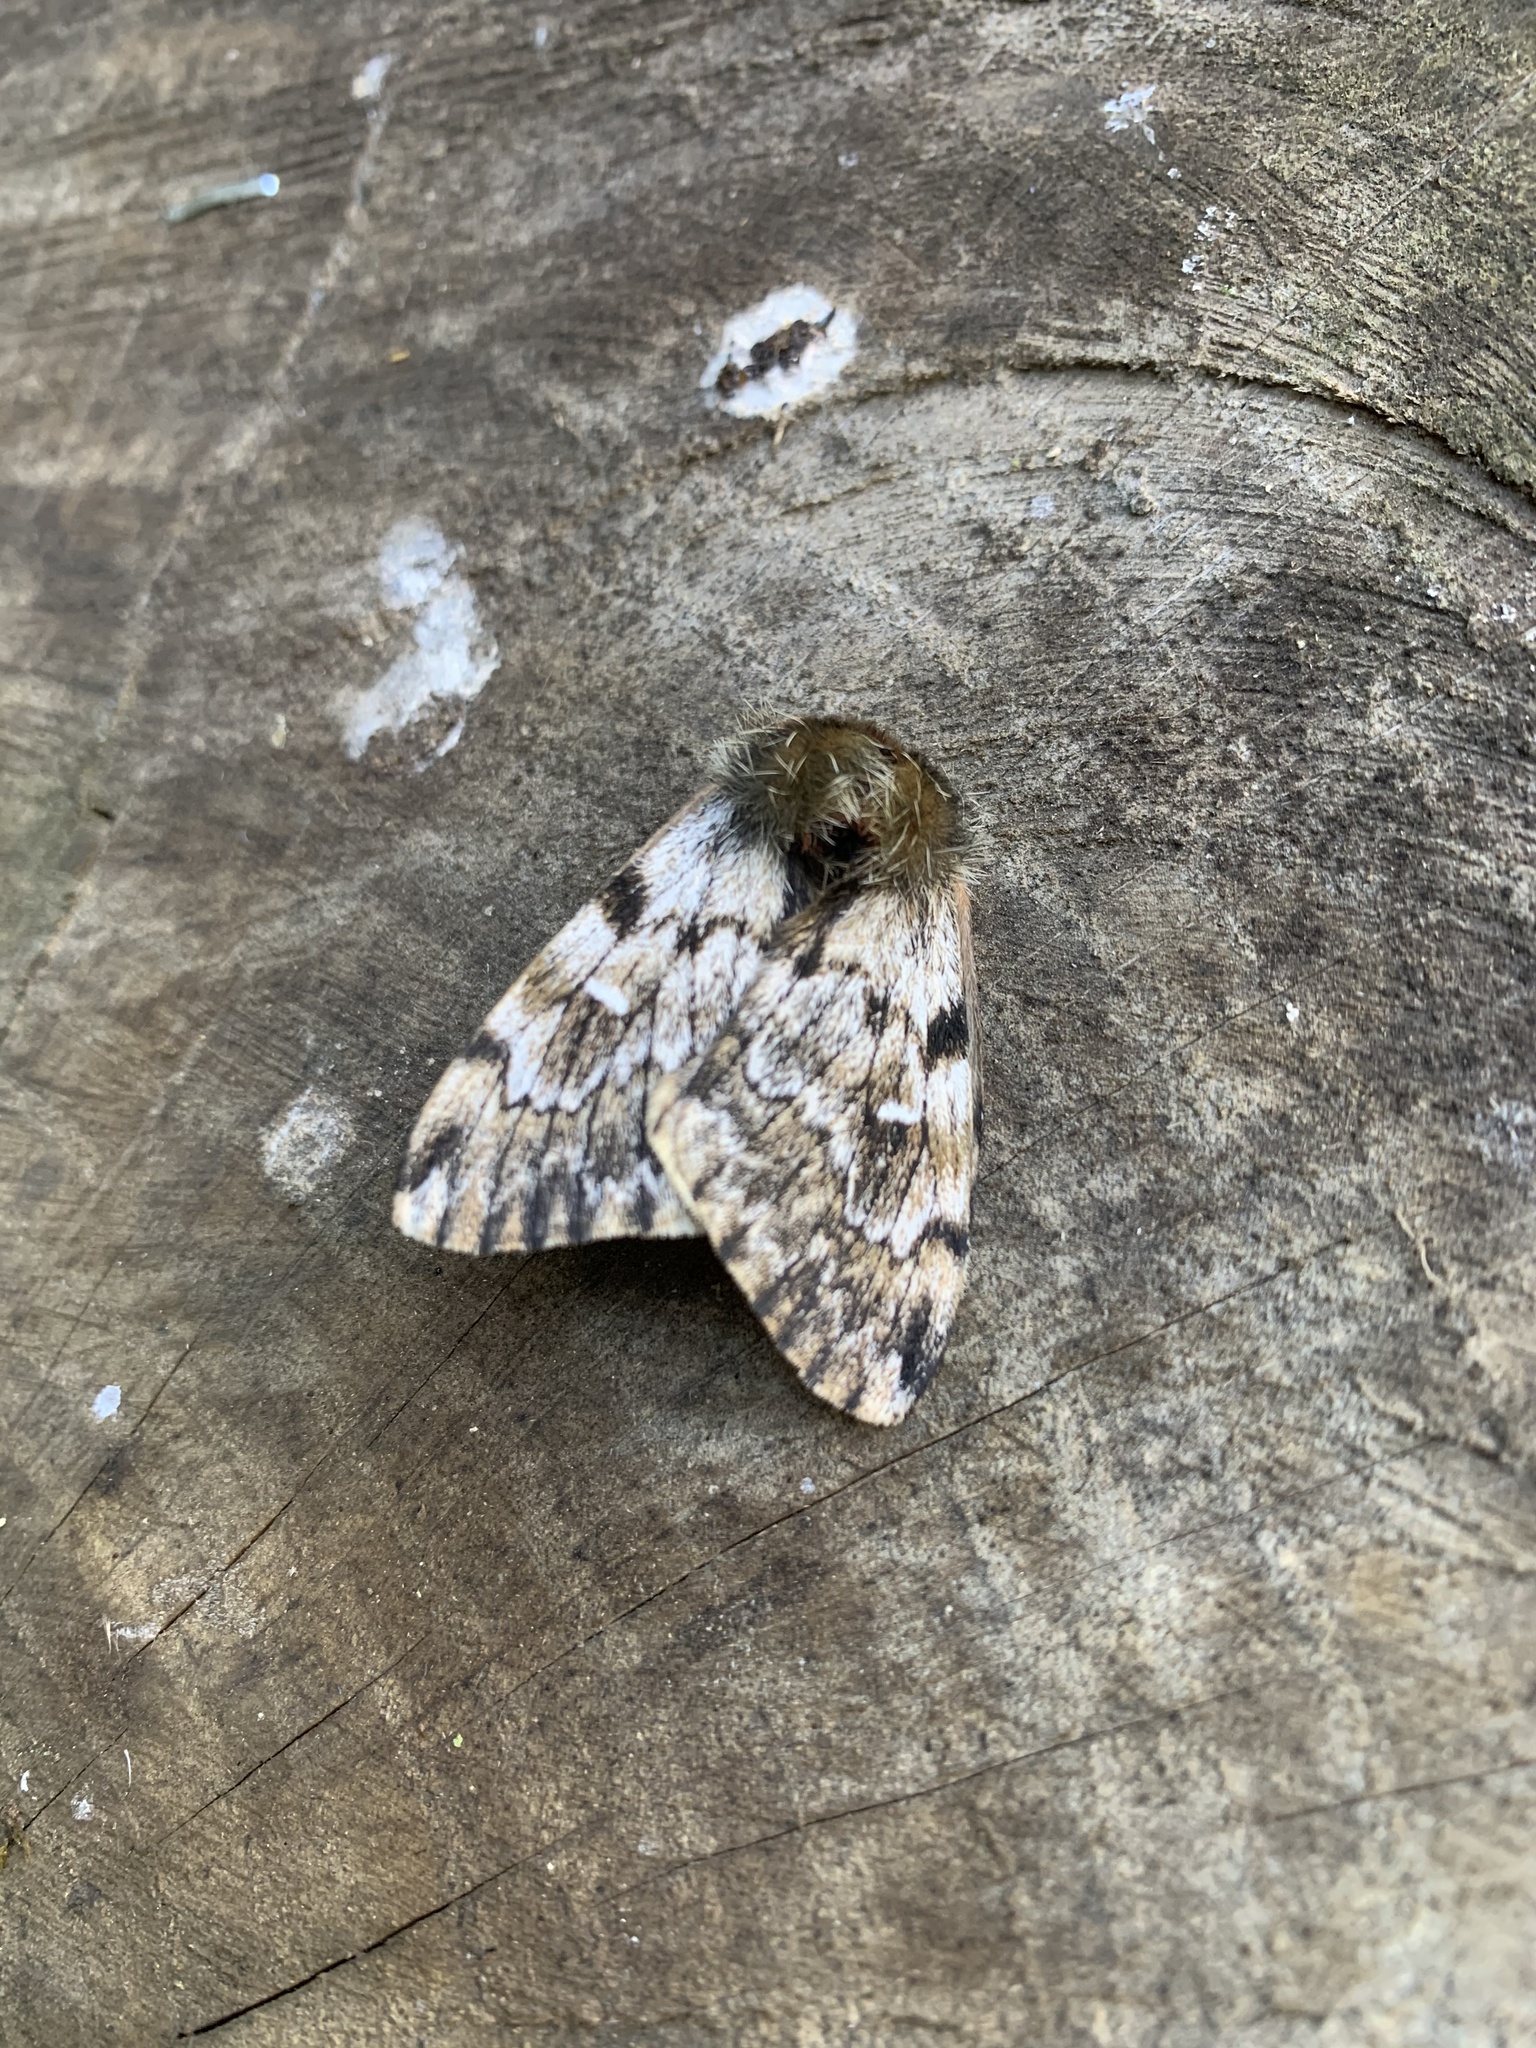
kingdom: Animalia
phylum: Arthropoda
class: Insecta
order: Lepidoptera
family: Saturniidae
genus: Ormiscodes
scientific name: Ormiscodes nigrosignata
